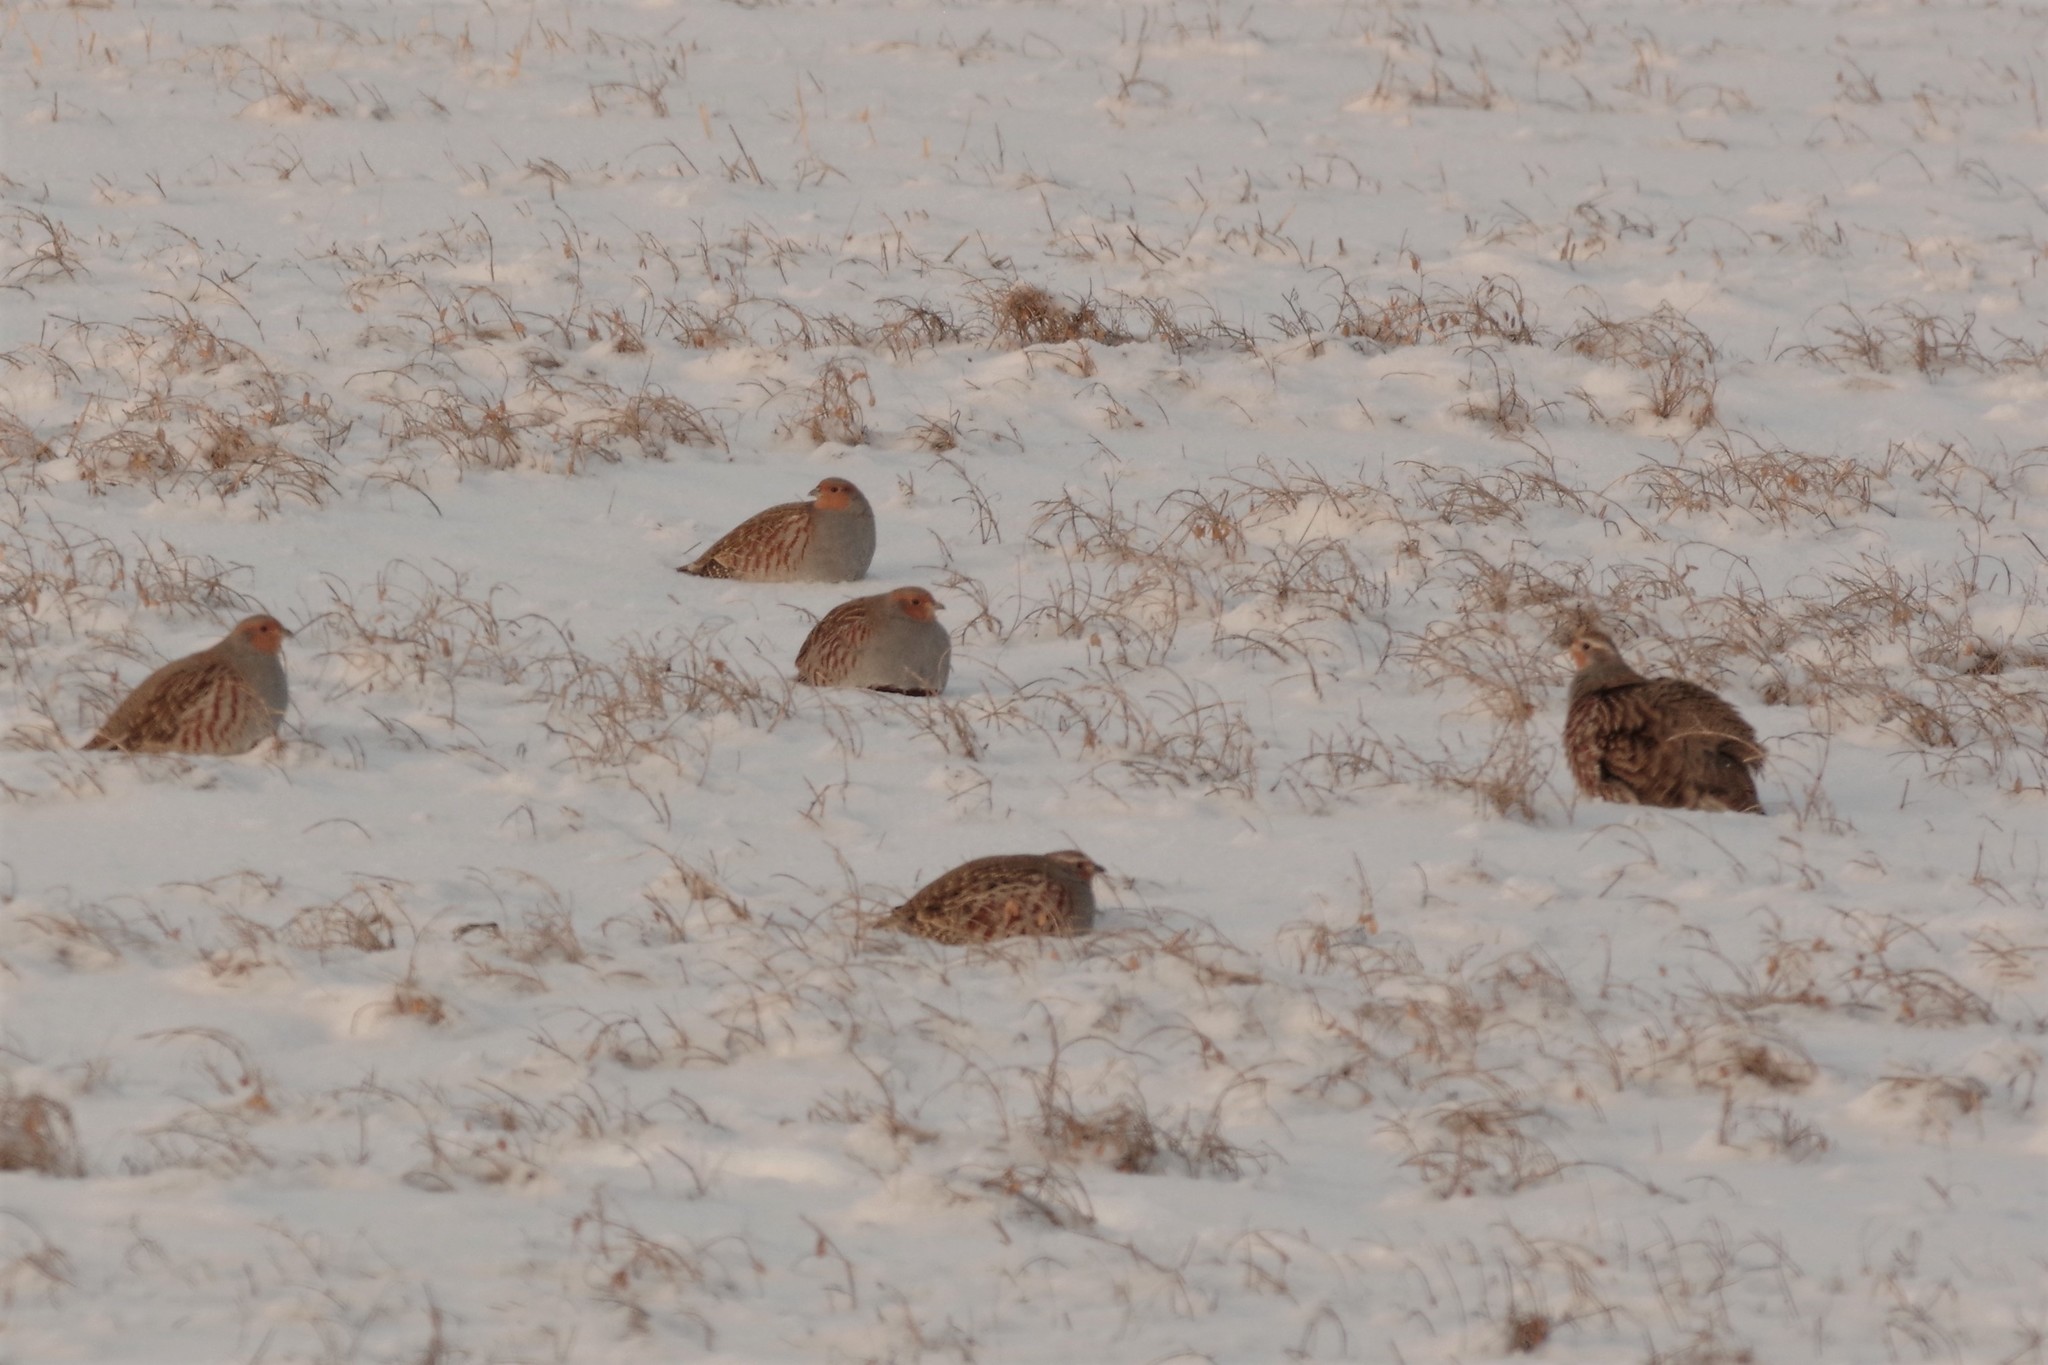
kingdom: Animalia
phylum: Chordata
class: Aves
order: Galliformes
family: Phasianidae
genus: Perdix
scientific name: Perdix perdix
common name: Grey partridge
